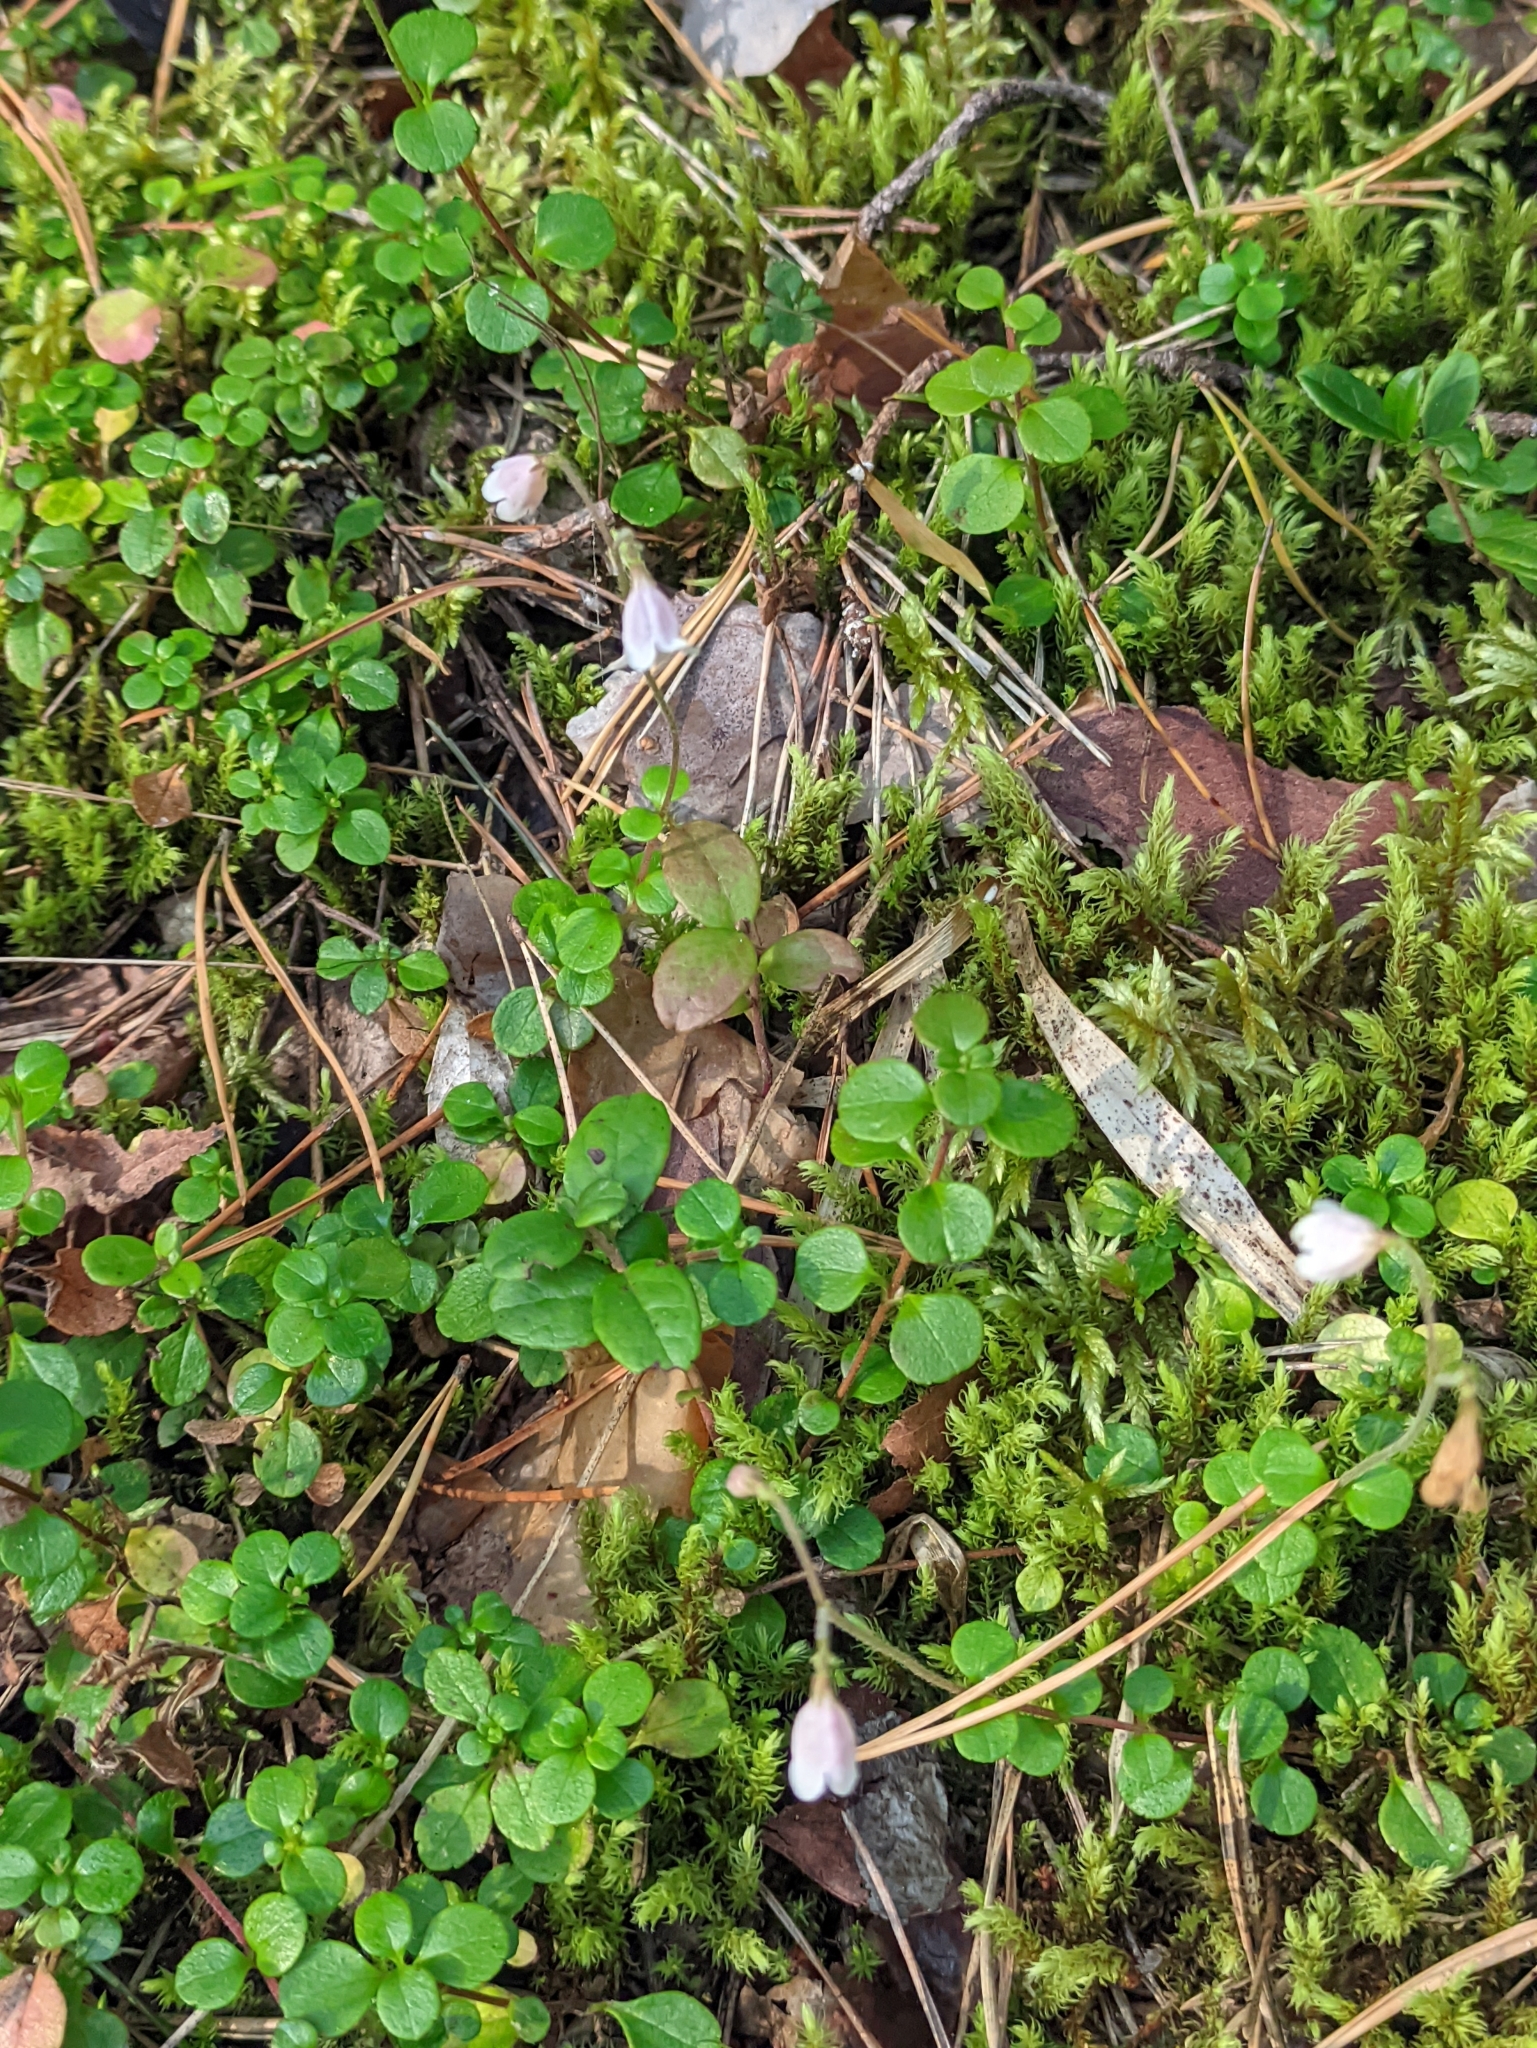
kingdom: Plantae
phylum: Tracheophyta
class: Magnoliopsida
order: Dipsacales
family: Caprifoliaceae
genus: Linnaea
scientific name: Linnaea borealis
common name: Twinflower
